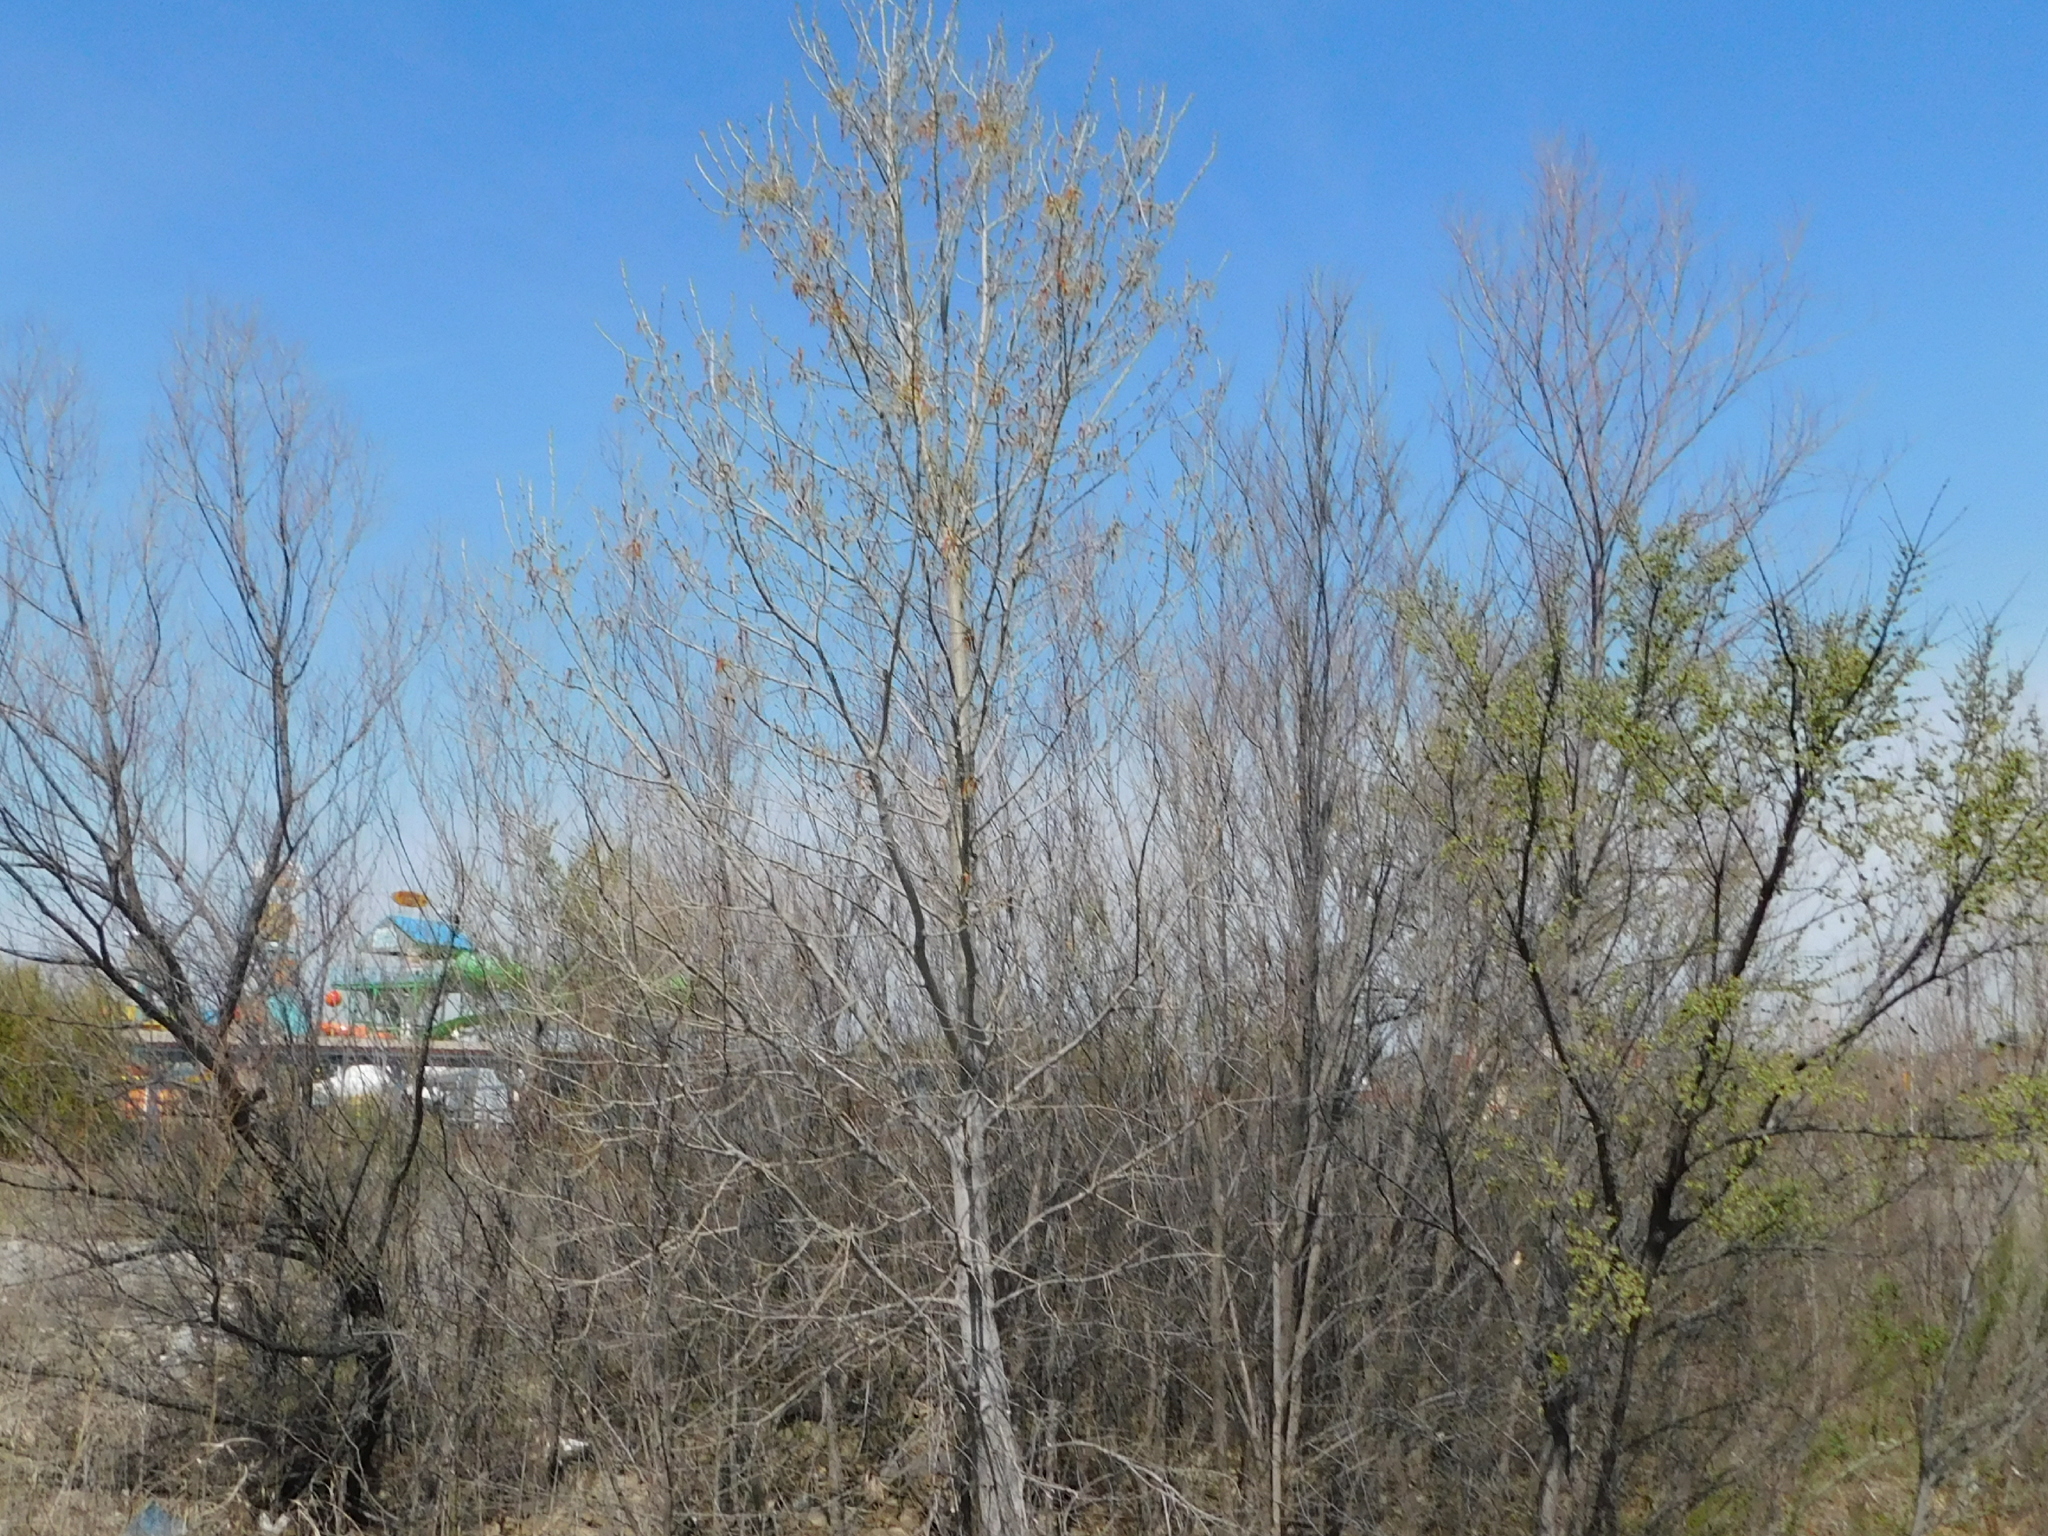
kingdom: Plantae
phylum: Tracheophyta
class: Magnoliopsida
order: Malpighiales
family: Salicaceae
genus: Populus
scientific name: Populus deltoides
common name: Eastern cottonwood
